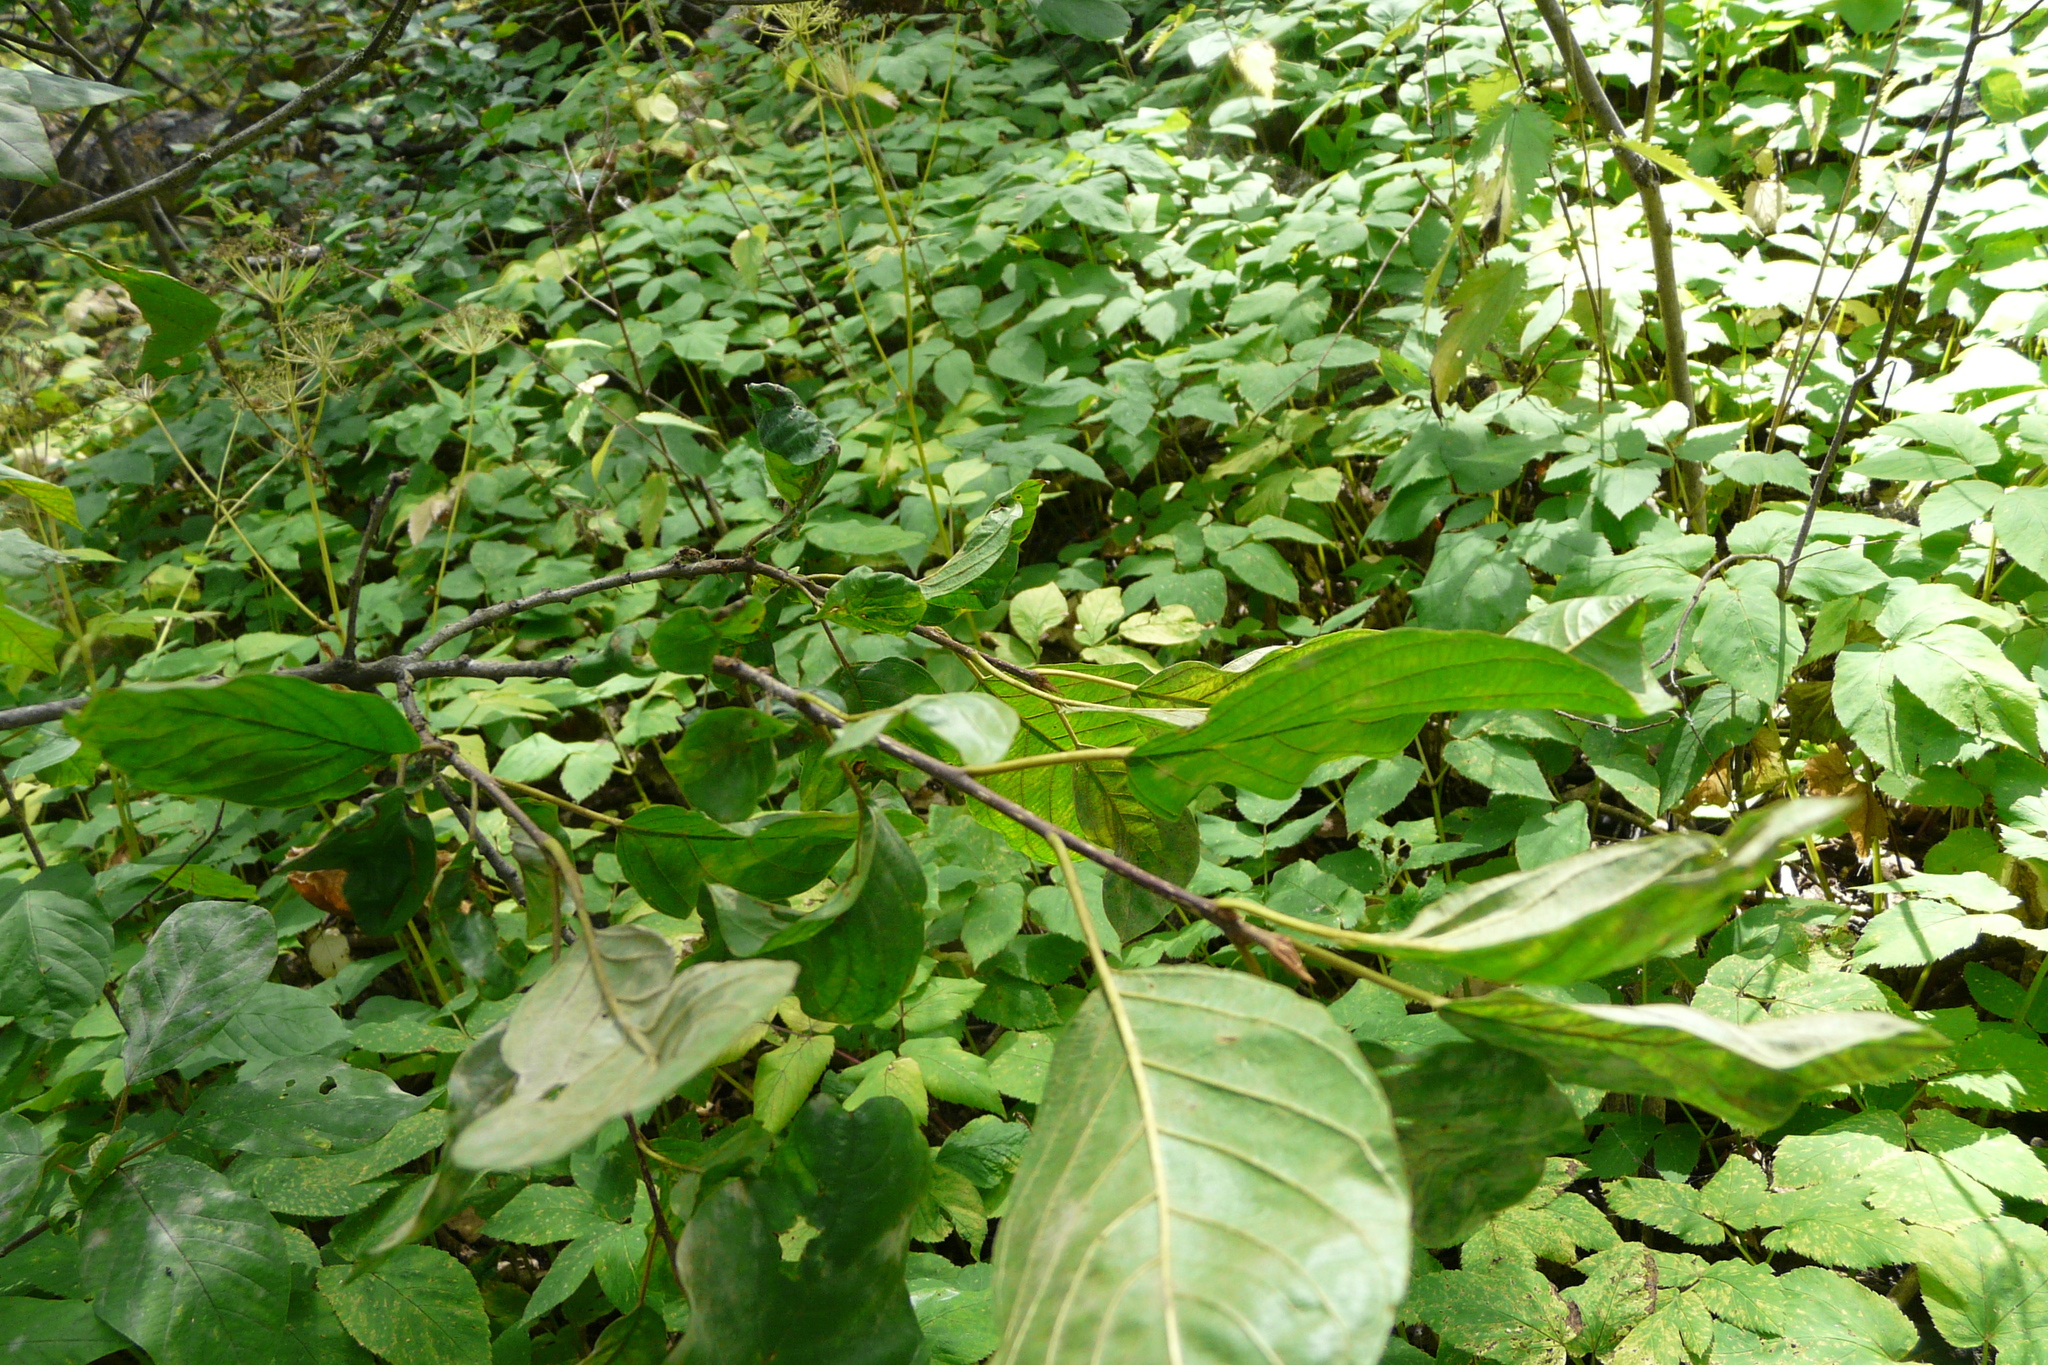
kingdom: Plantae
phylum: Tracheophyta
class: Magnoliopsida
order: Rosales
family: Rhamnaceae
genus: Frangula
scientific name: Frangula alnus
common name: Alder buckthorn
